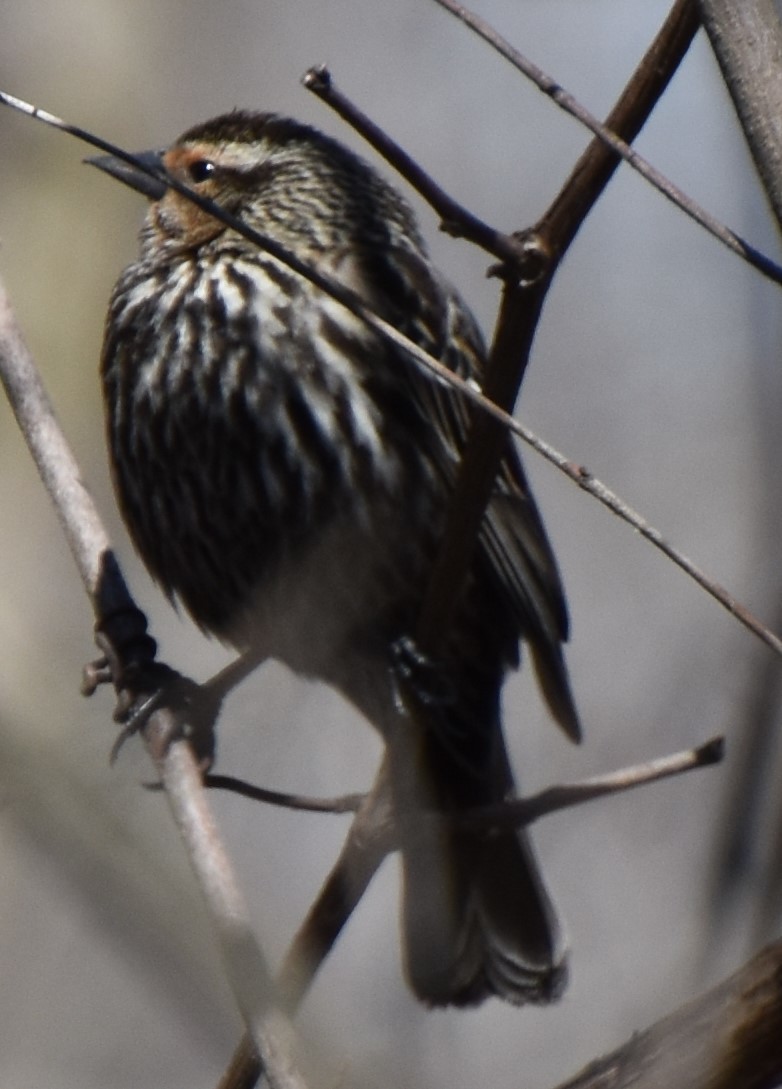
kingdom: Animalia
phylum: Chordata
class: Aves
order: Passeriformes
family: Icteridae
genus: Agelaius
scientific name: Agelaius phoeniceus
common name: Red-winged blackbird
